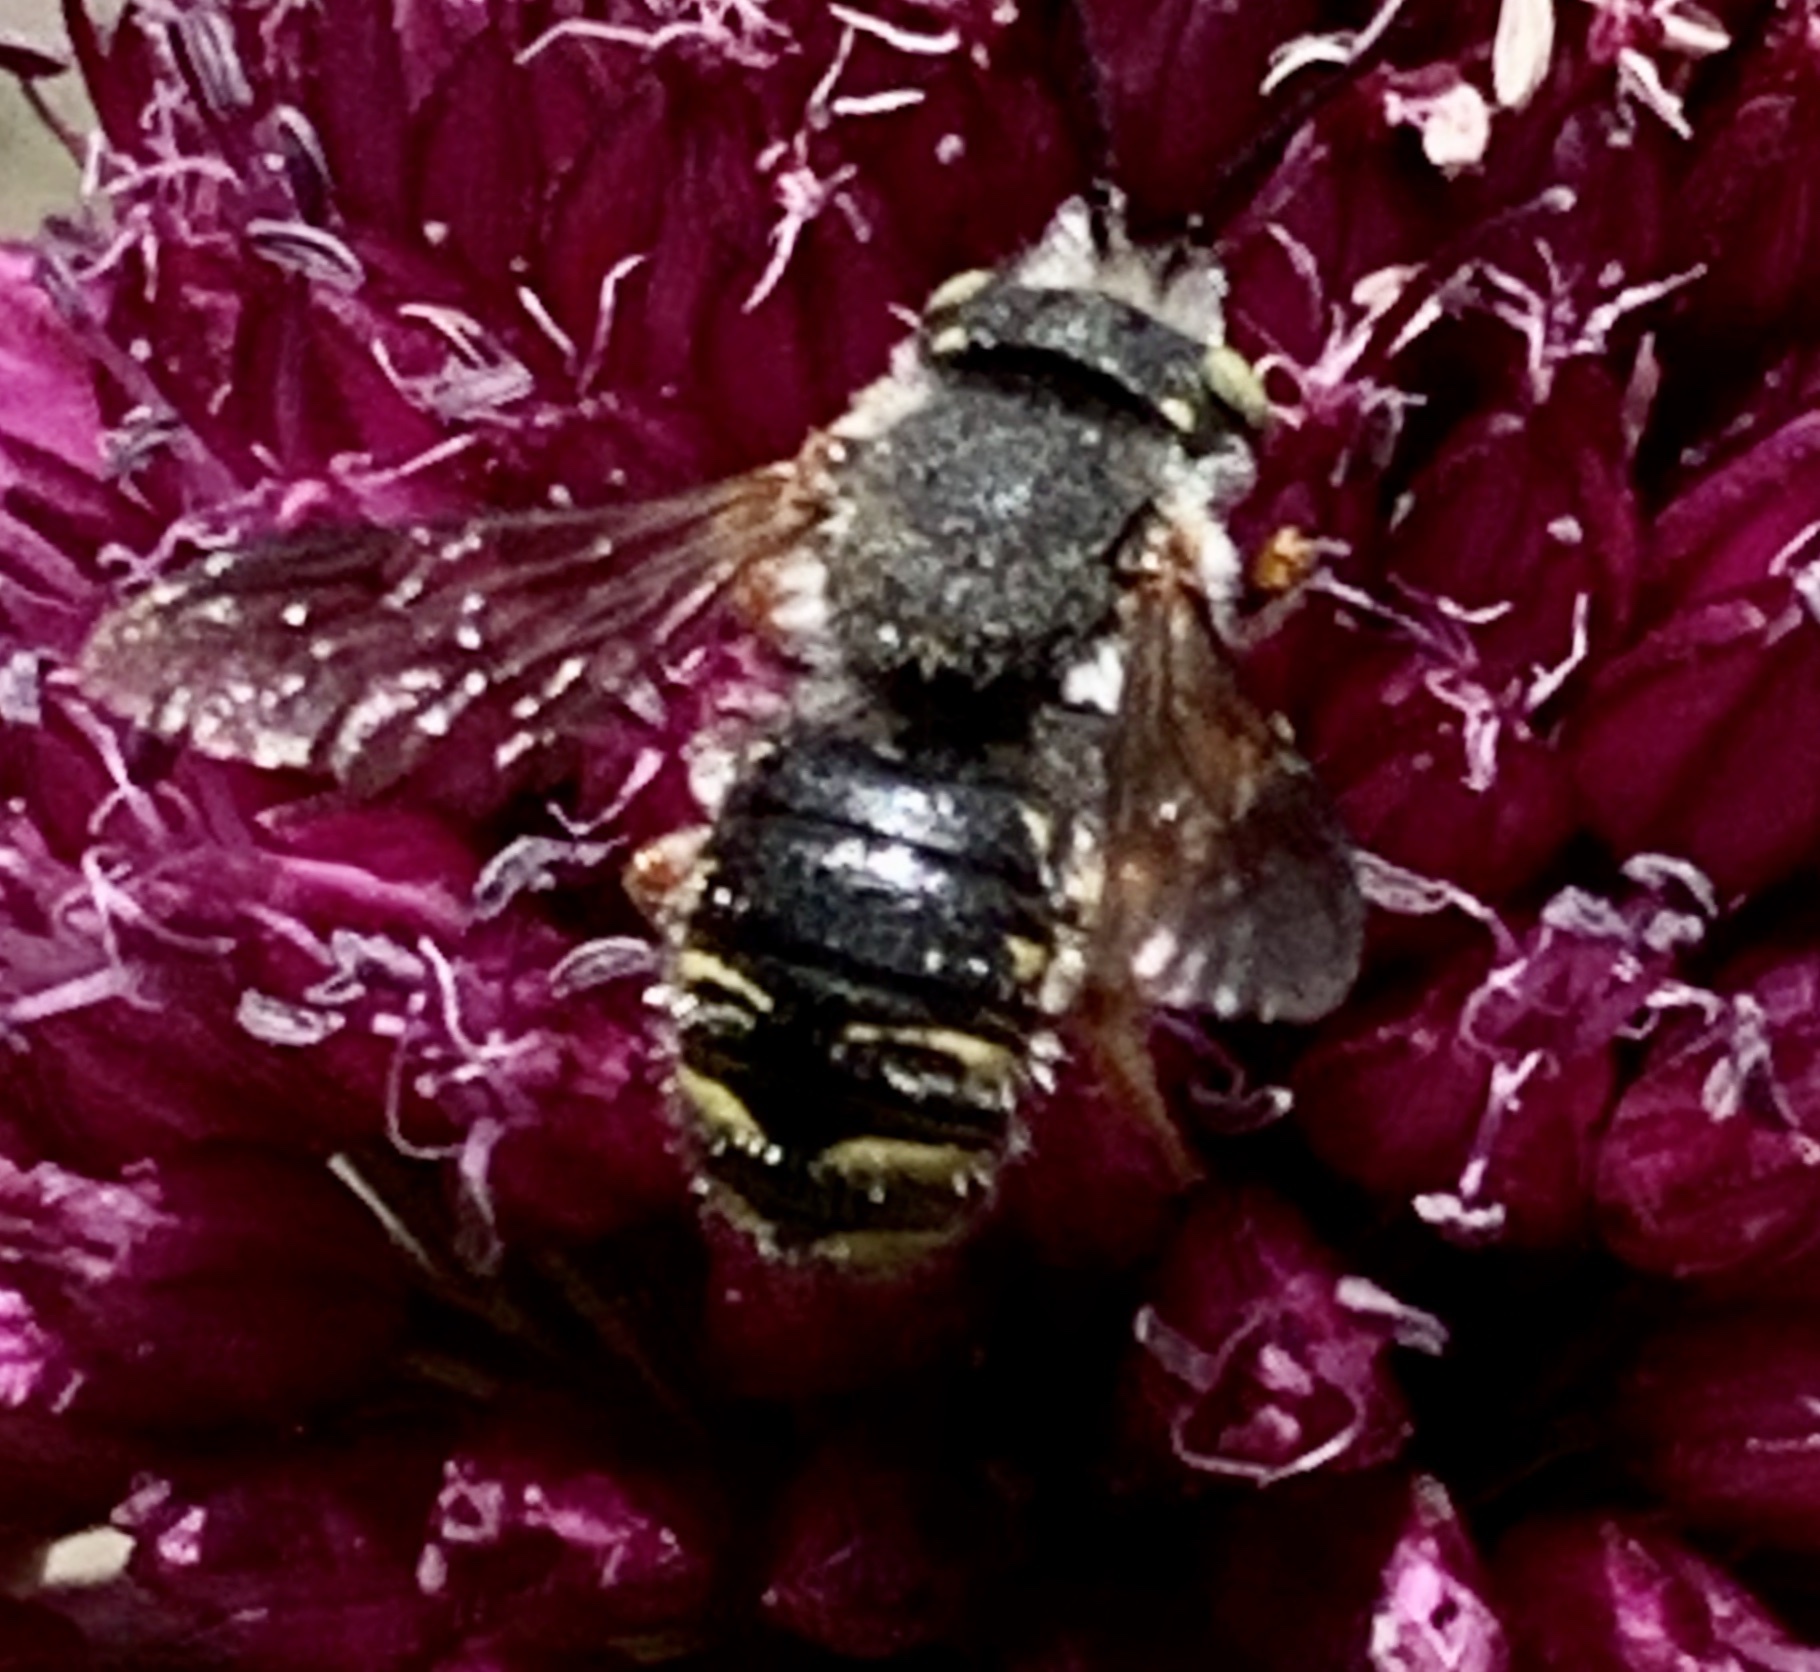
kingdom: Animalia
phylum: Arthropoda
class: Insecta
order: Hymenoptera
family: Megachilidae
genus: Anthidium
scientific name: Anthidium oblongatum
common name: Oblong wool carder bee
